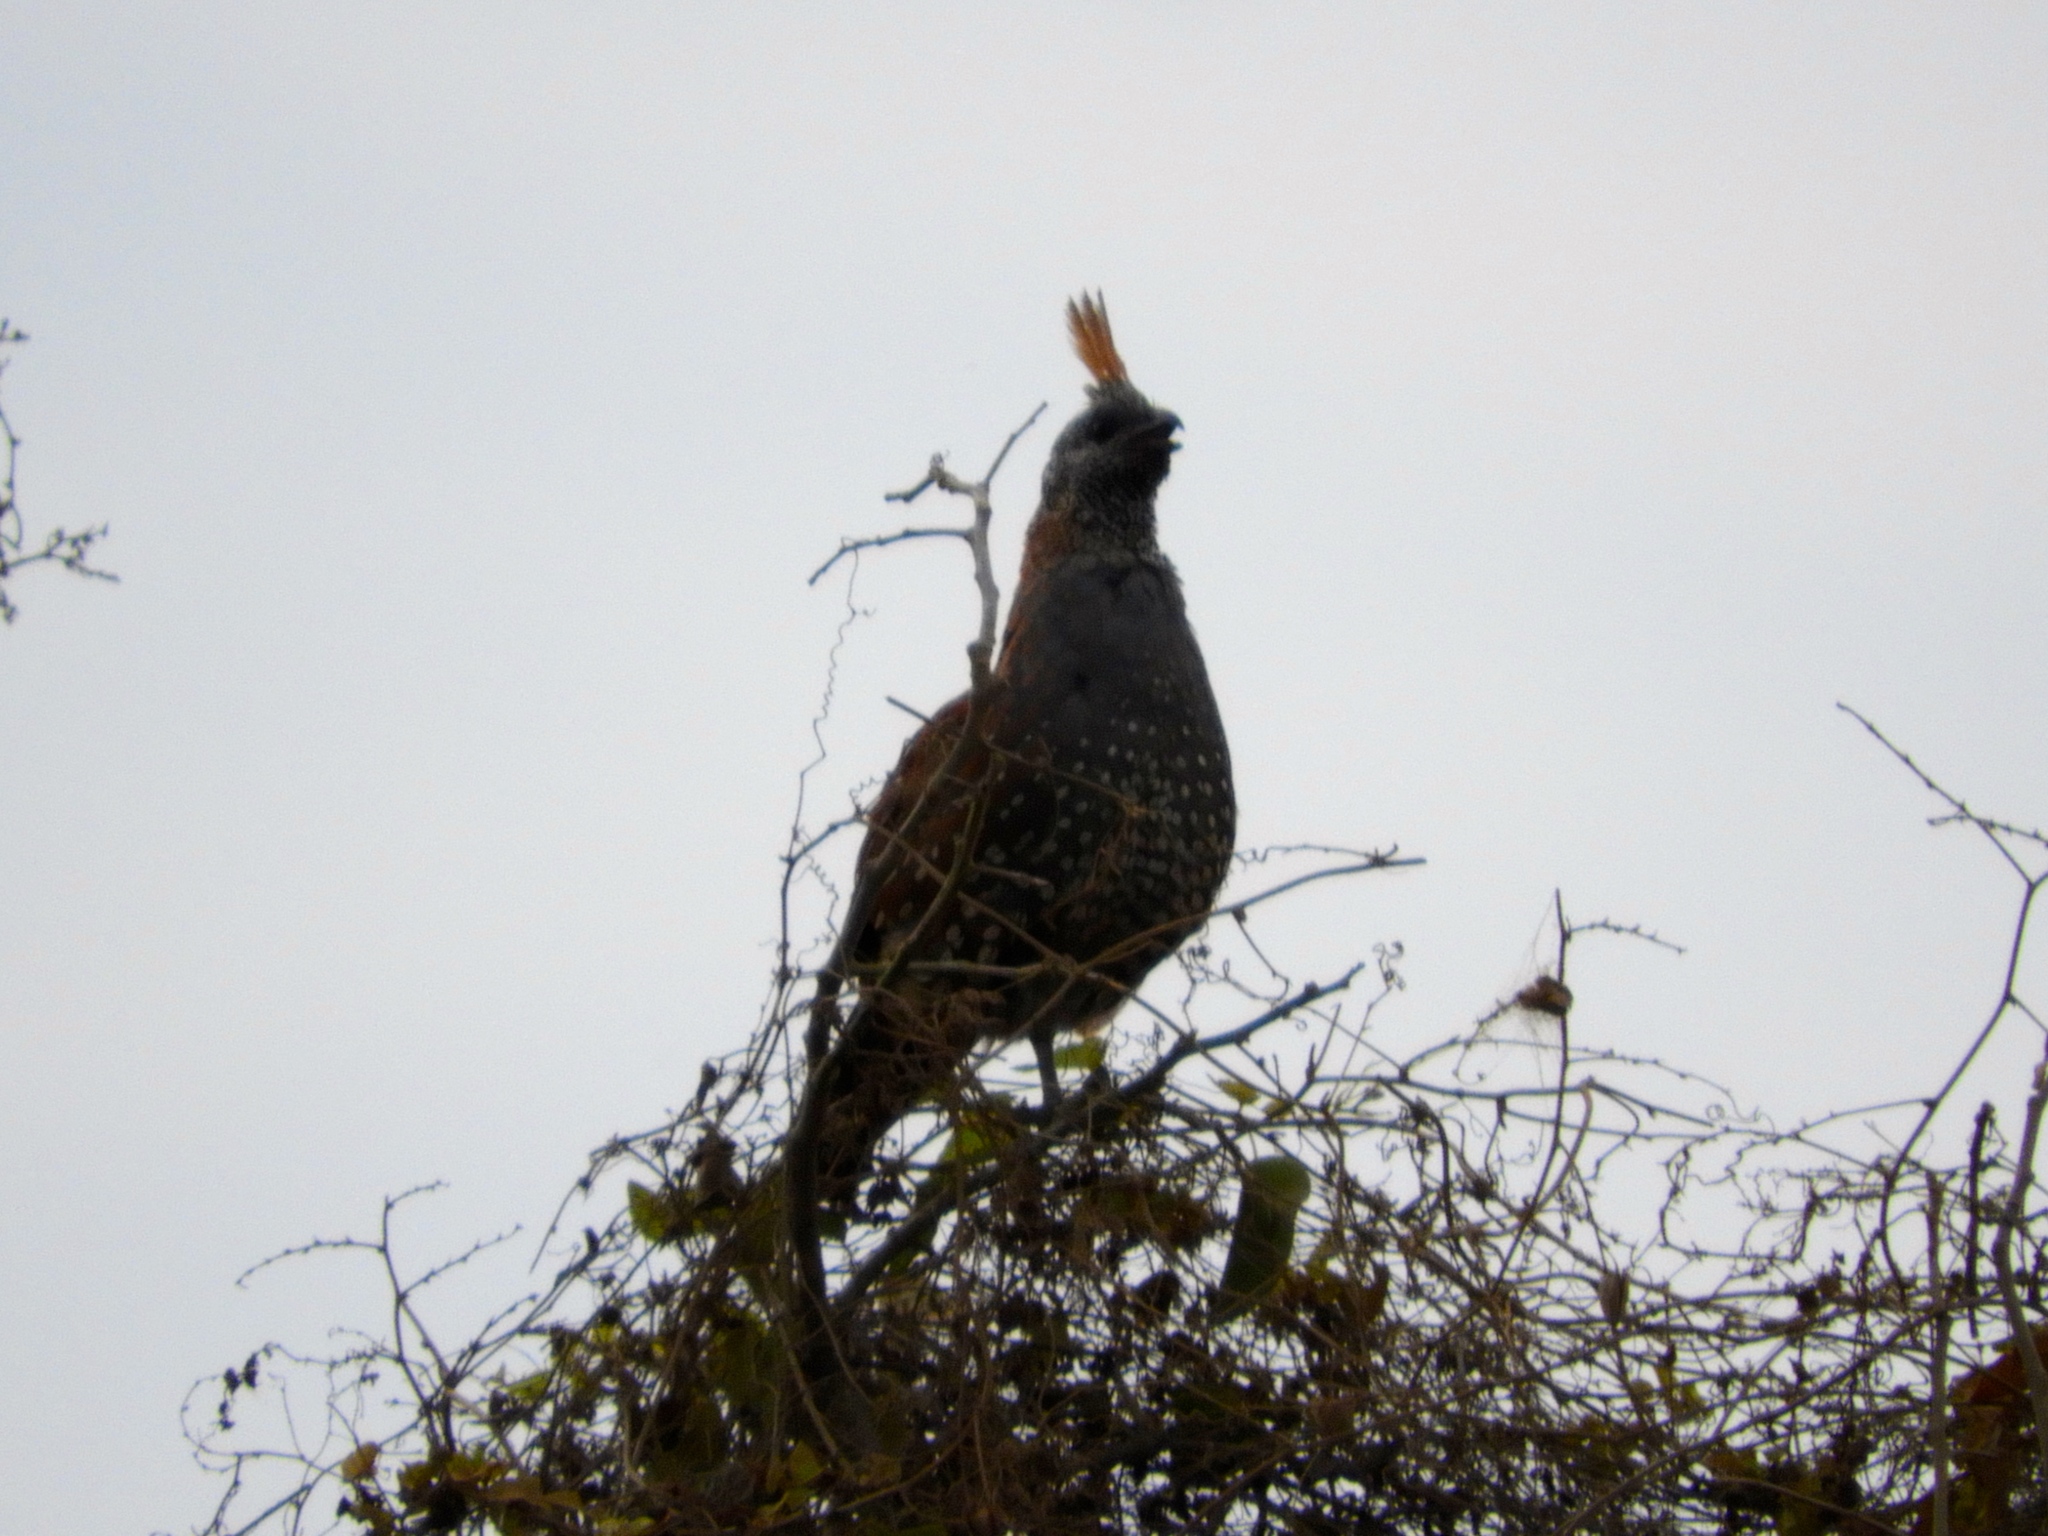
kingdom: Animalia
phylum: Chordata
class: Aves
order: Galliformes
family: Odontophoridae
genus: Callipepla
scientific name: Callipepla douglasii
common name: Elegant quail
